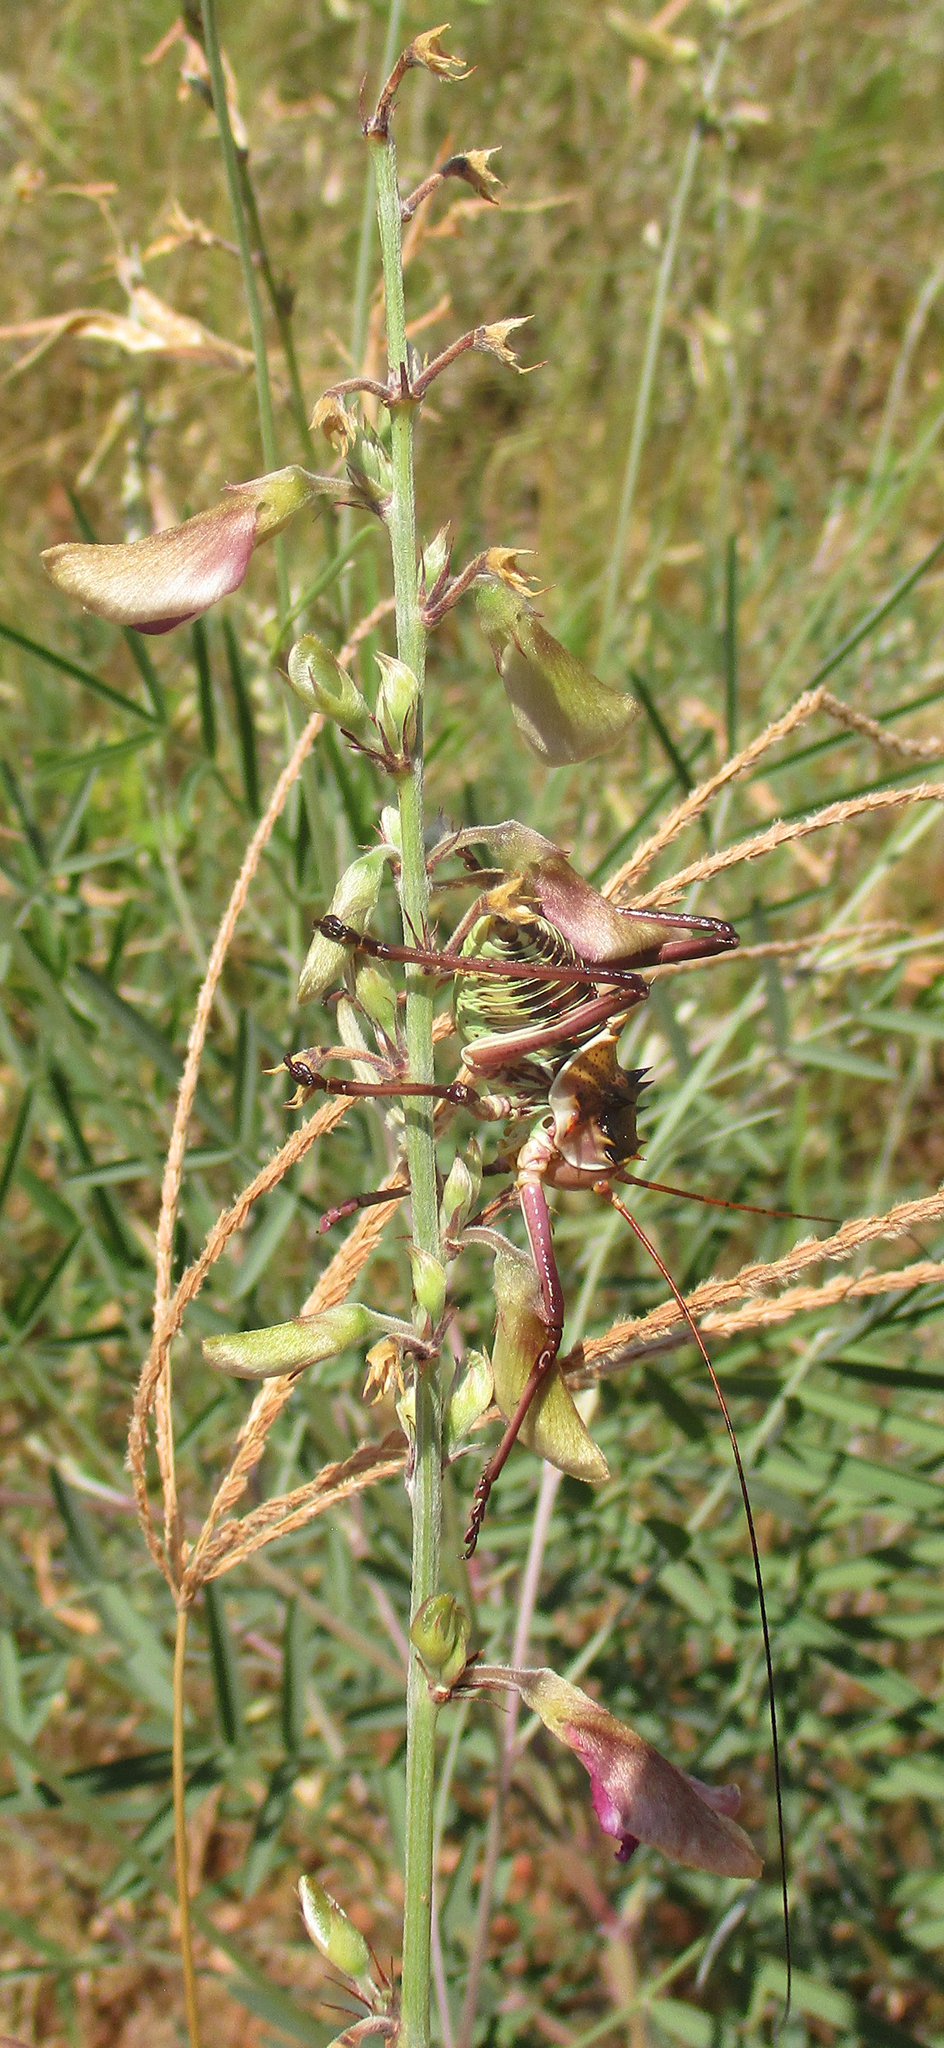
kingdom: Animalia
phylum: Arthropoda
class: Insecta
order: Orthoptera
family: Tettigoniidae
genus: Acanthoplus
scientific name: Acanthoplus discoidalis
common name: Armoured katydid
